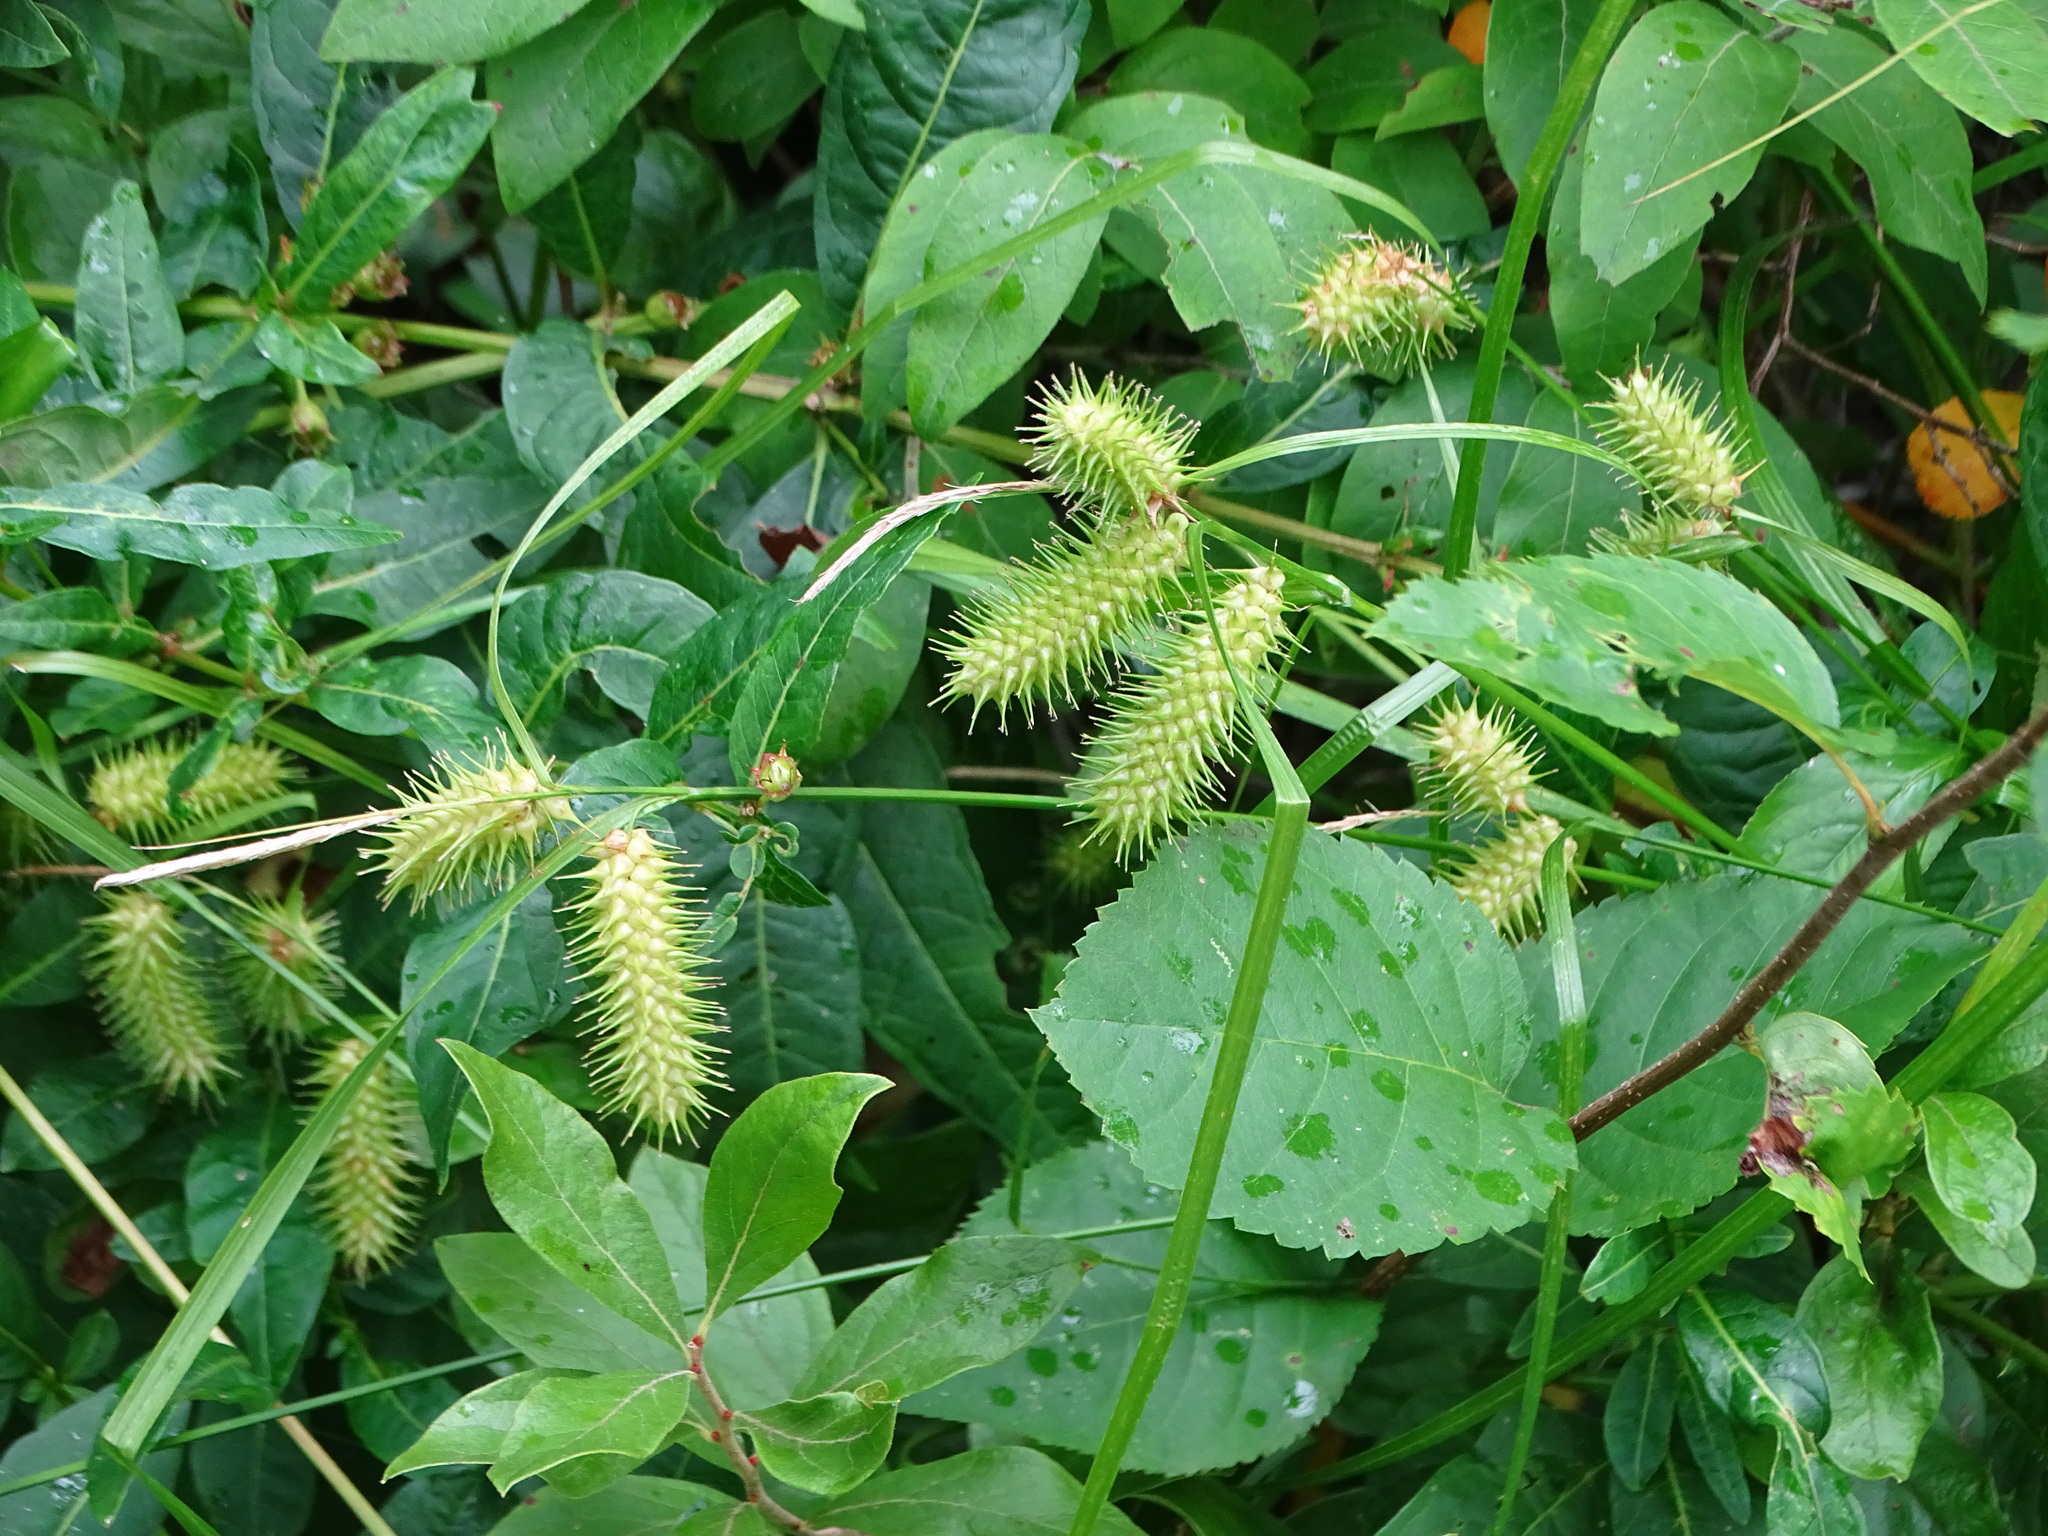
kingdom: Plantae
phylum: Tracheophyta
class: Liliopsida
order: Poales
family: Cyperaceae
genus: Carex
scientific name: Carex lurida
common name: Sallow sedge
